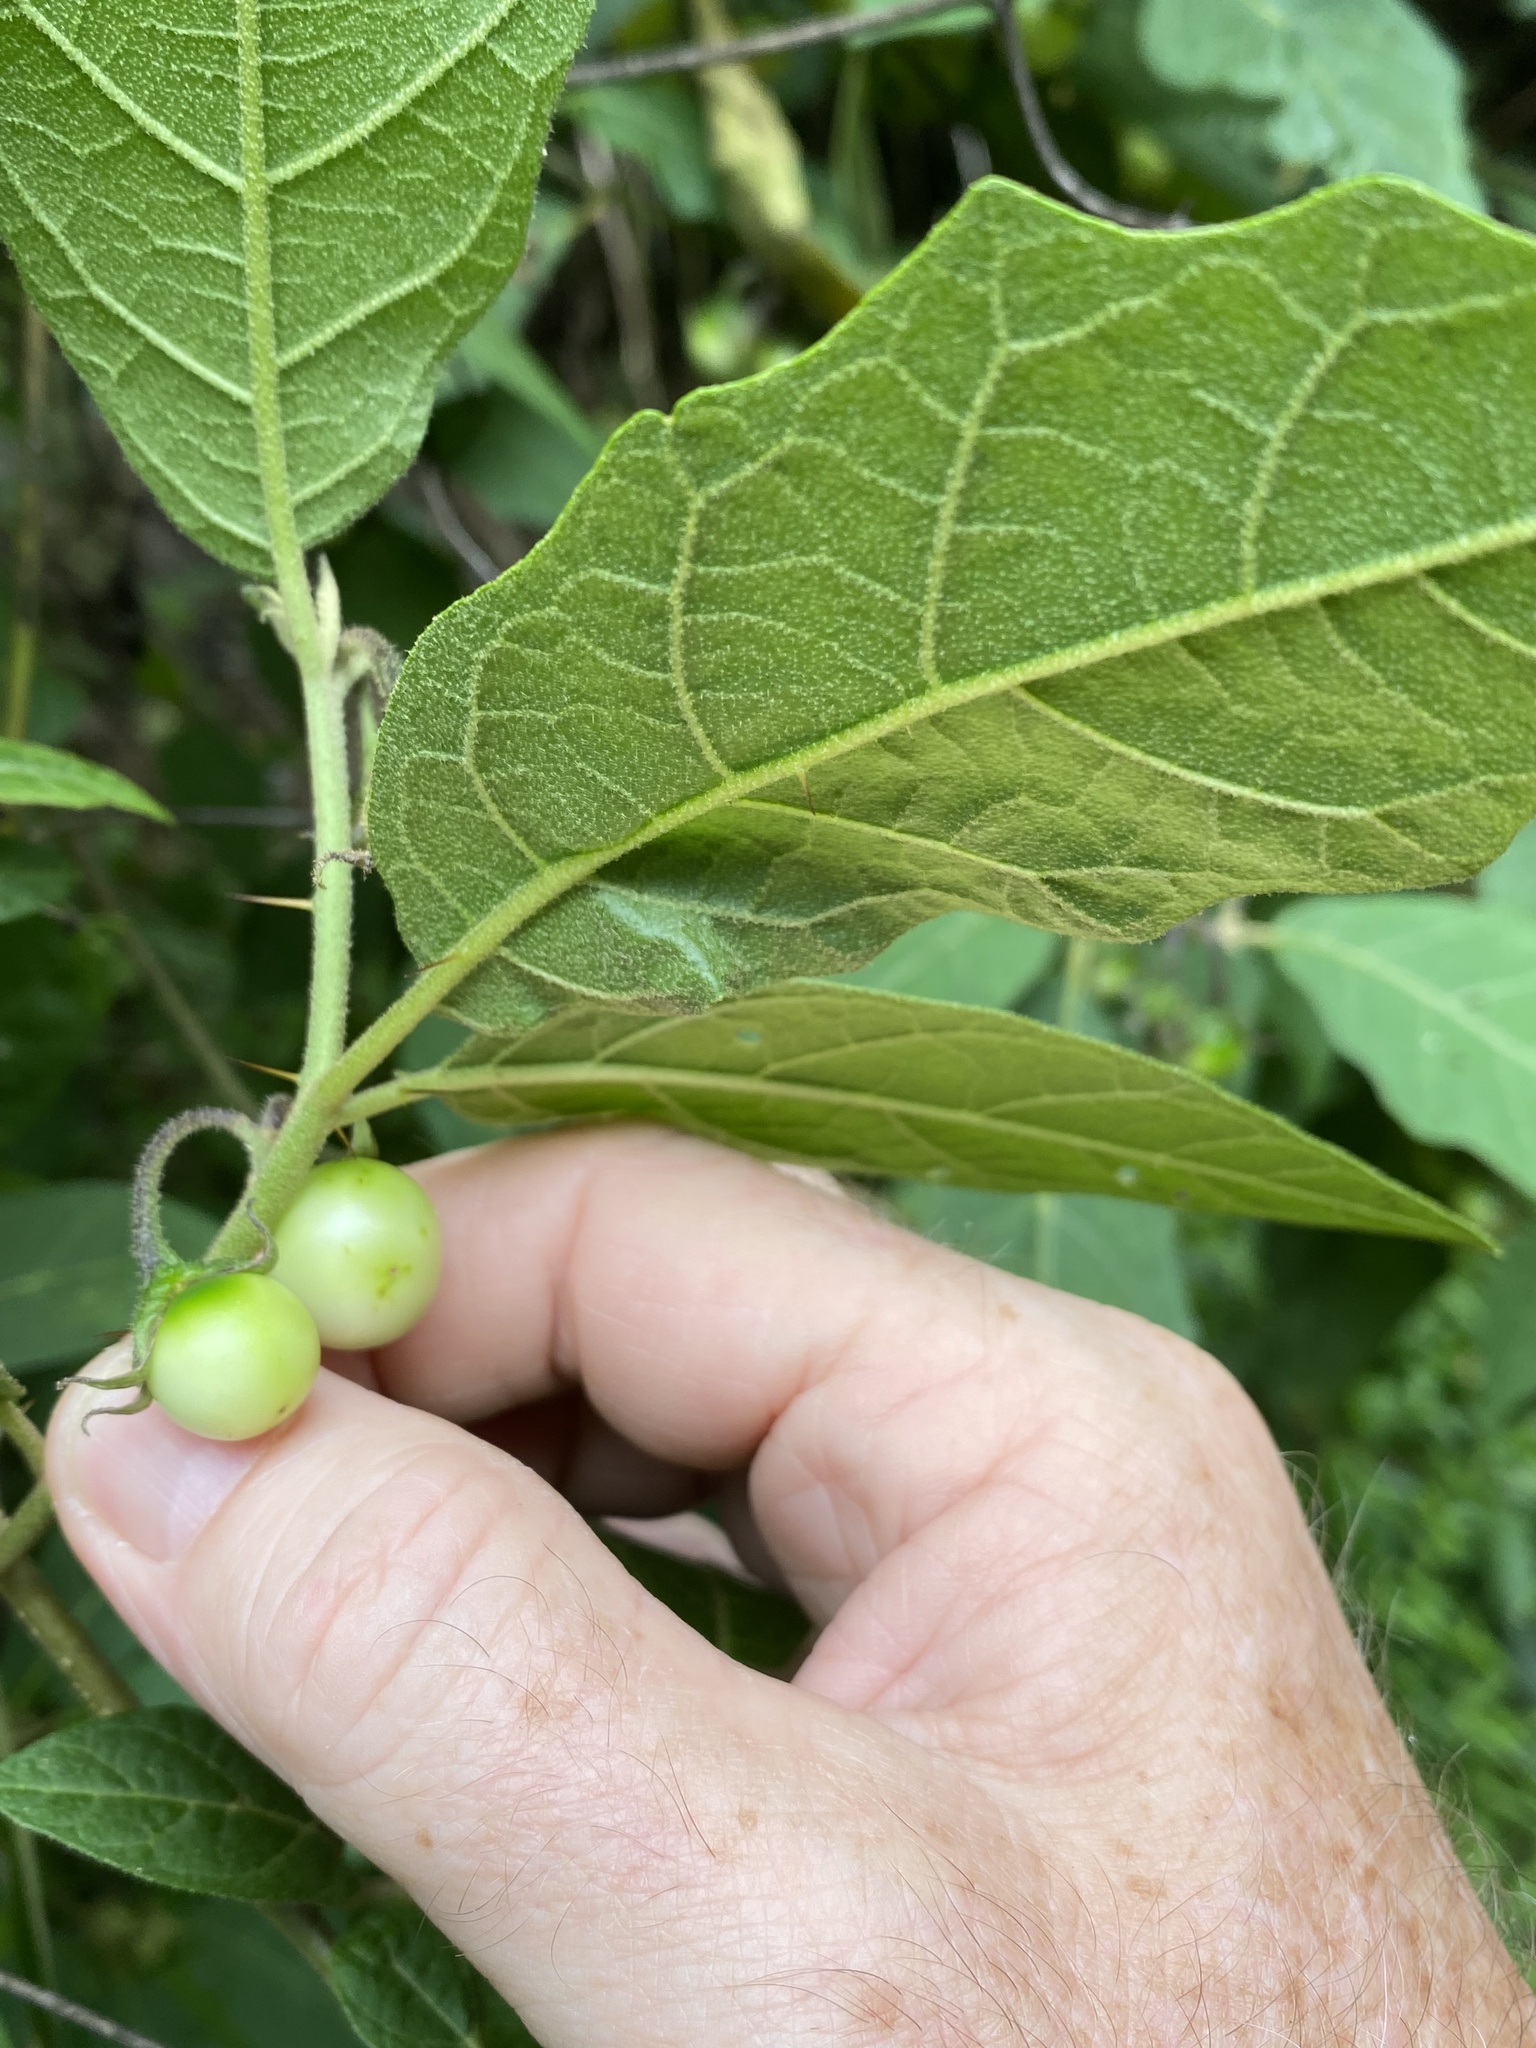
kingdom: Plantae
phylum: Tracheophyta
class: Magnoliopsida
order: Solanales
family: Solanaceae
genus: Solanum
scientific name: Solanum rixosum
